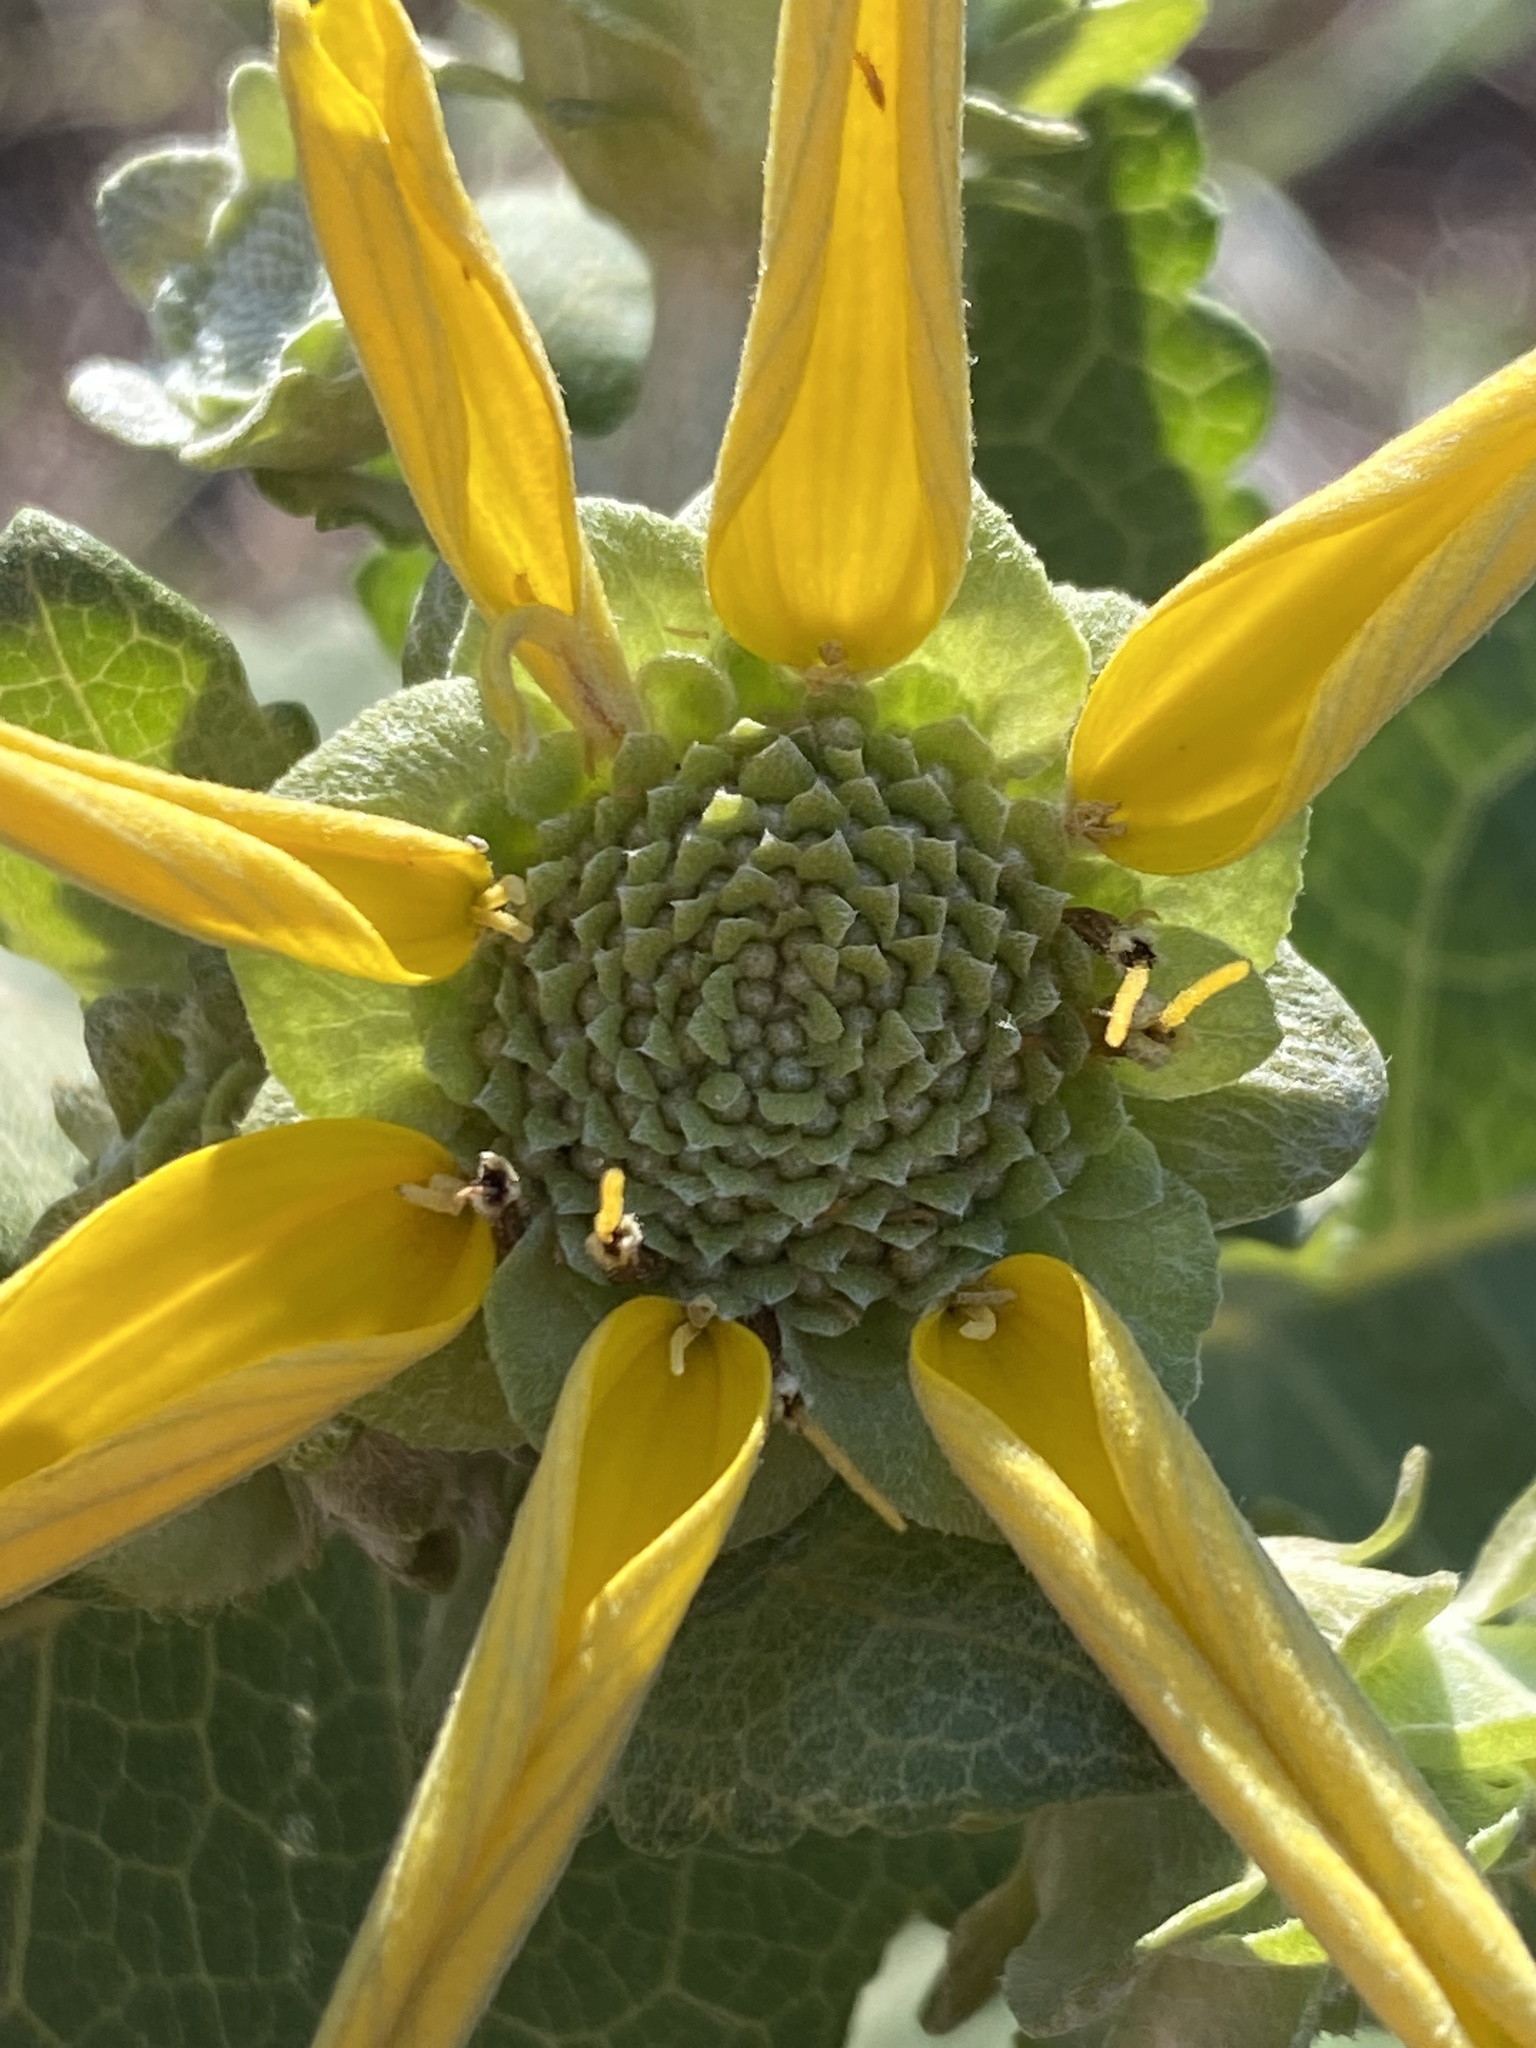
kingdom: Plantae
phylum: Tracheophyta
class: Magnoliopsida
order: Asterales
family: Asteraceae
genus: Berlandiera
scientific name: Berlandiera pumila
